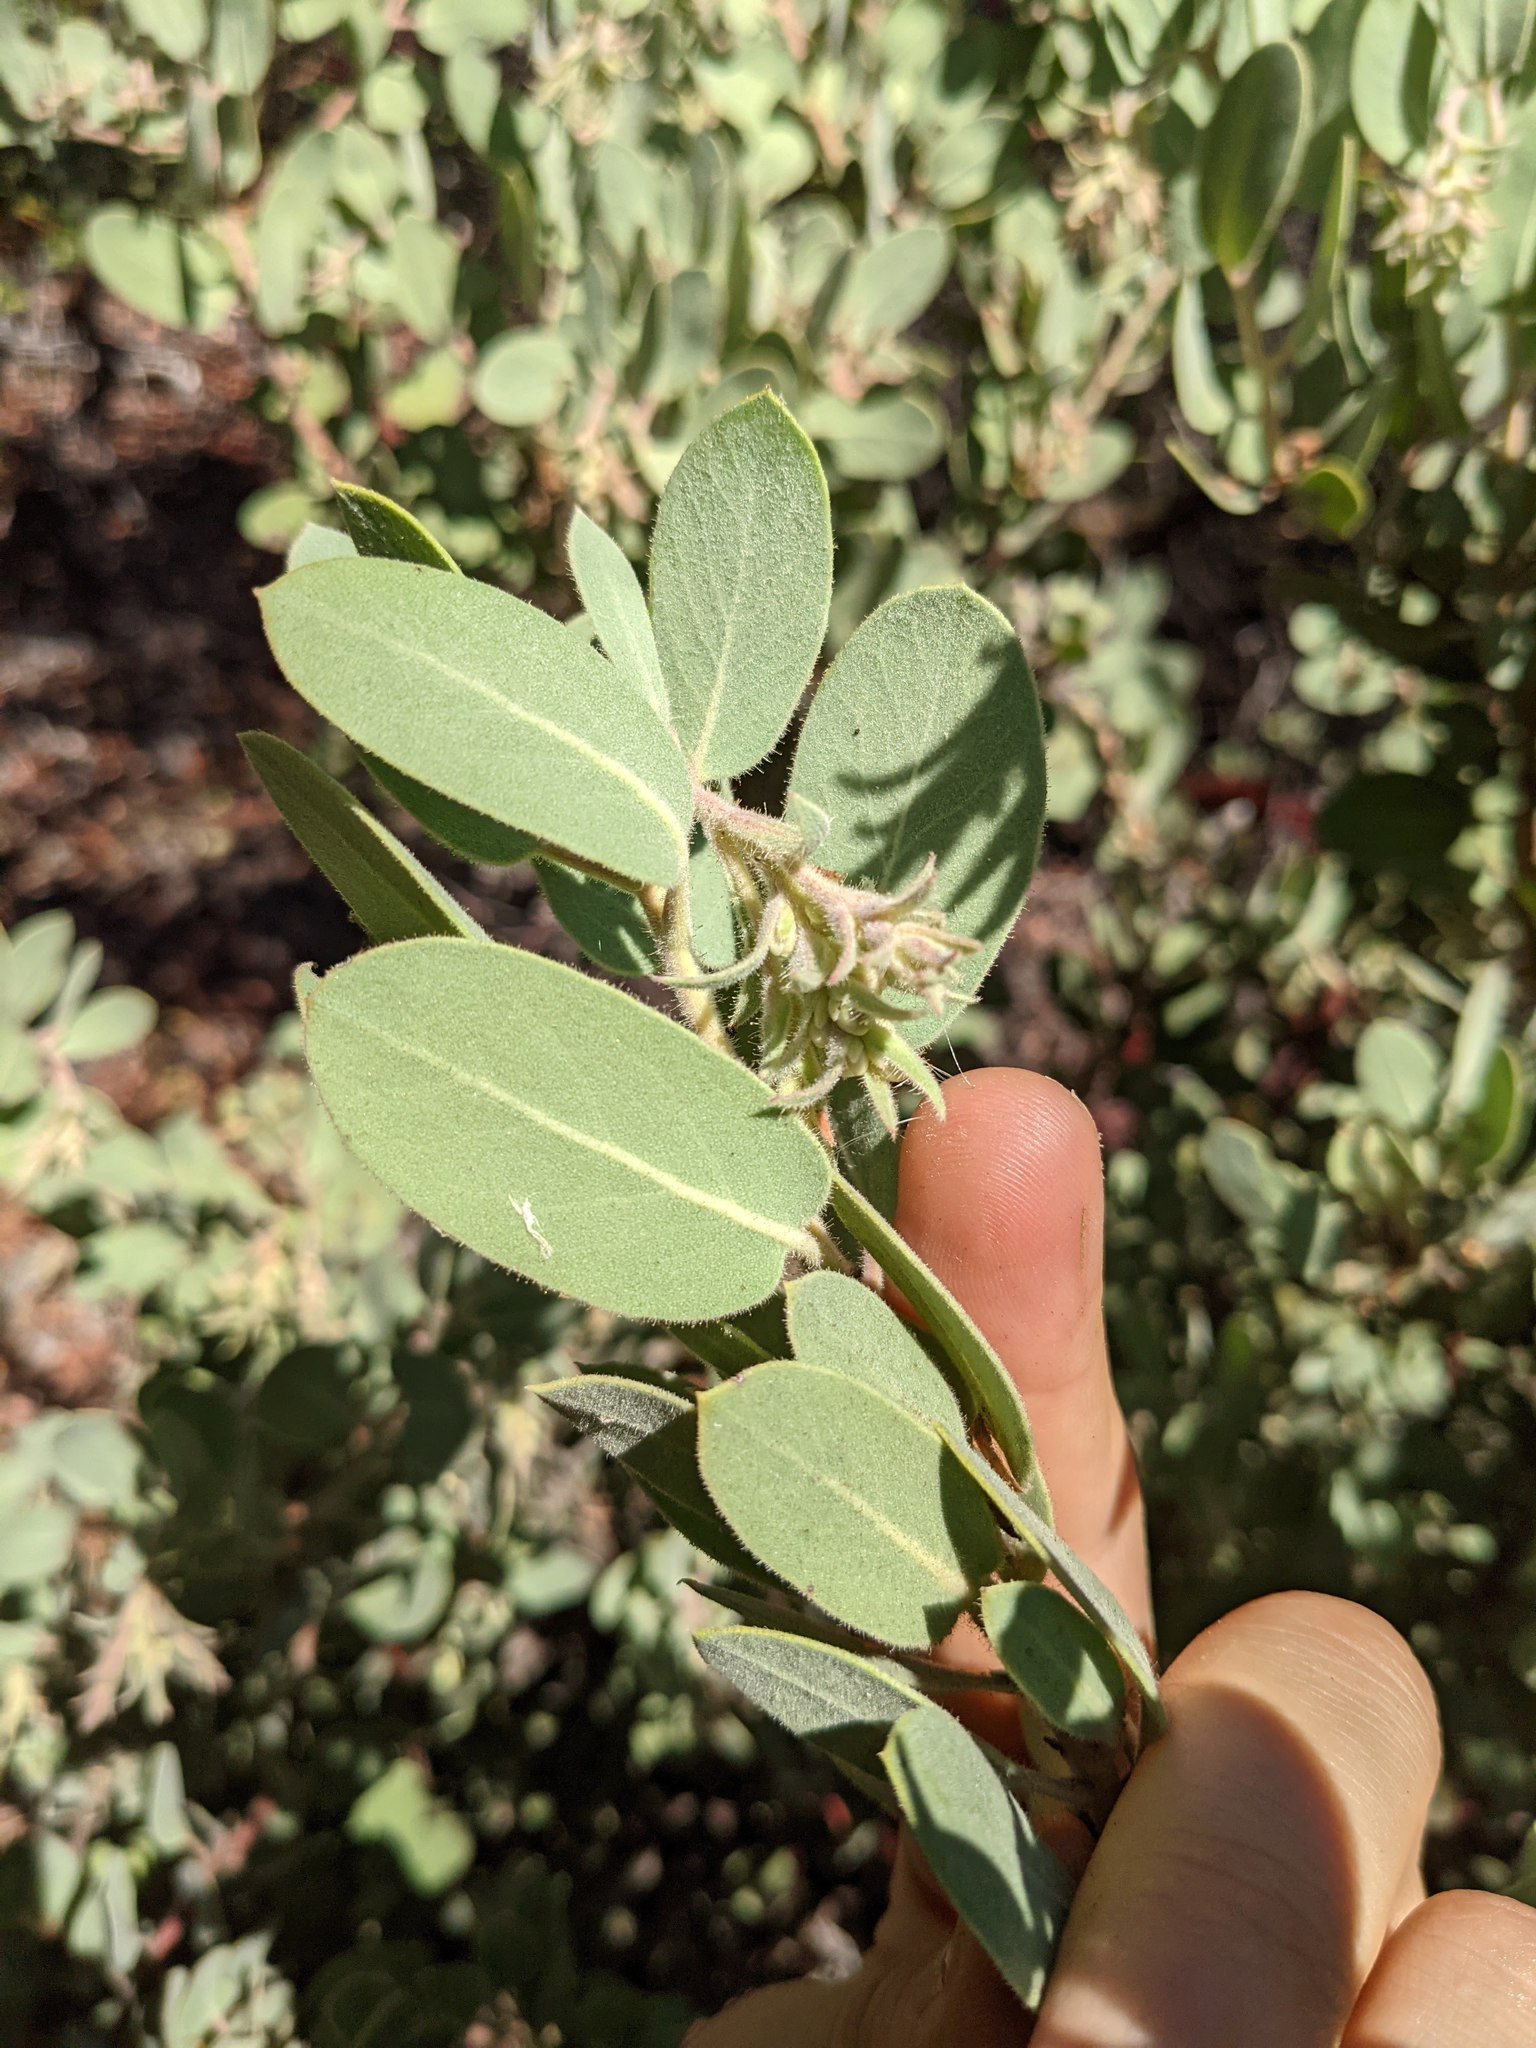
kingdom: Plantae
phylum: Tracheophyta
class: Magnoliopsida
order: Ericales
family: Ericaceae
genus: Arctostaphylos
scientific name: Arctostaphylos hooveri
